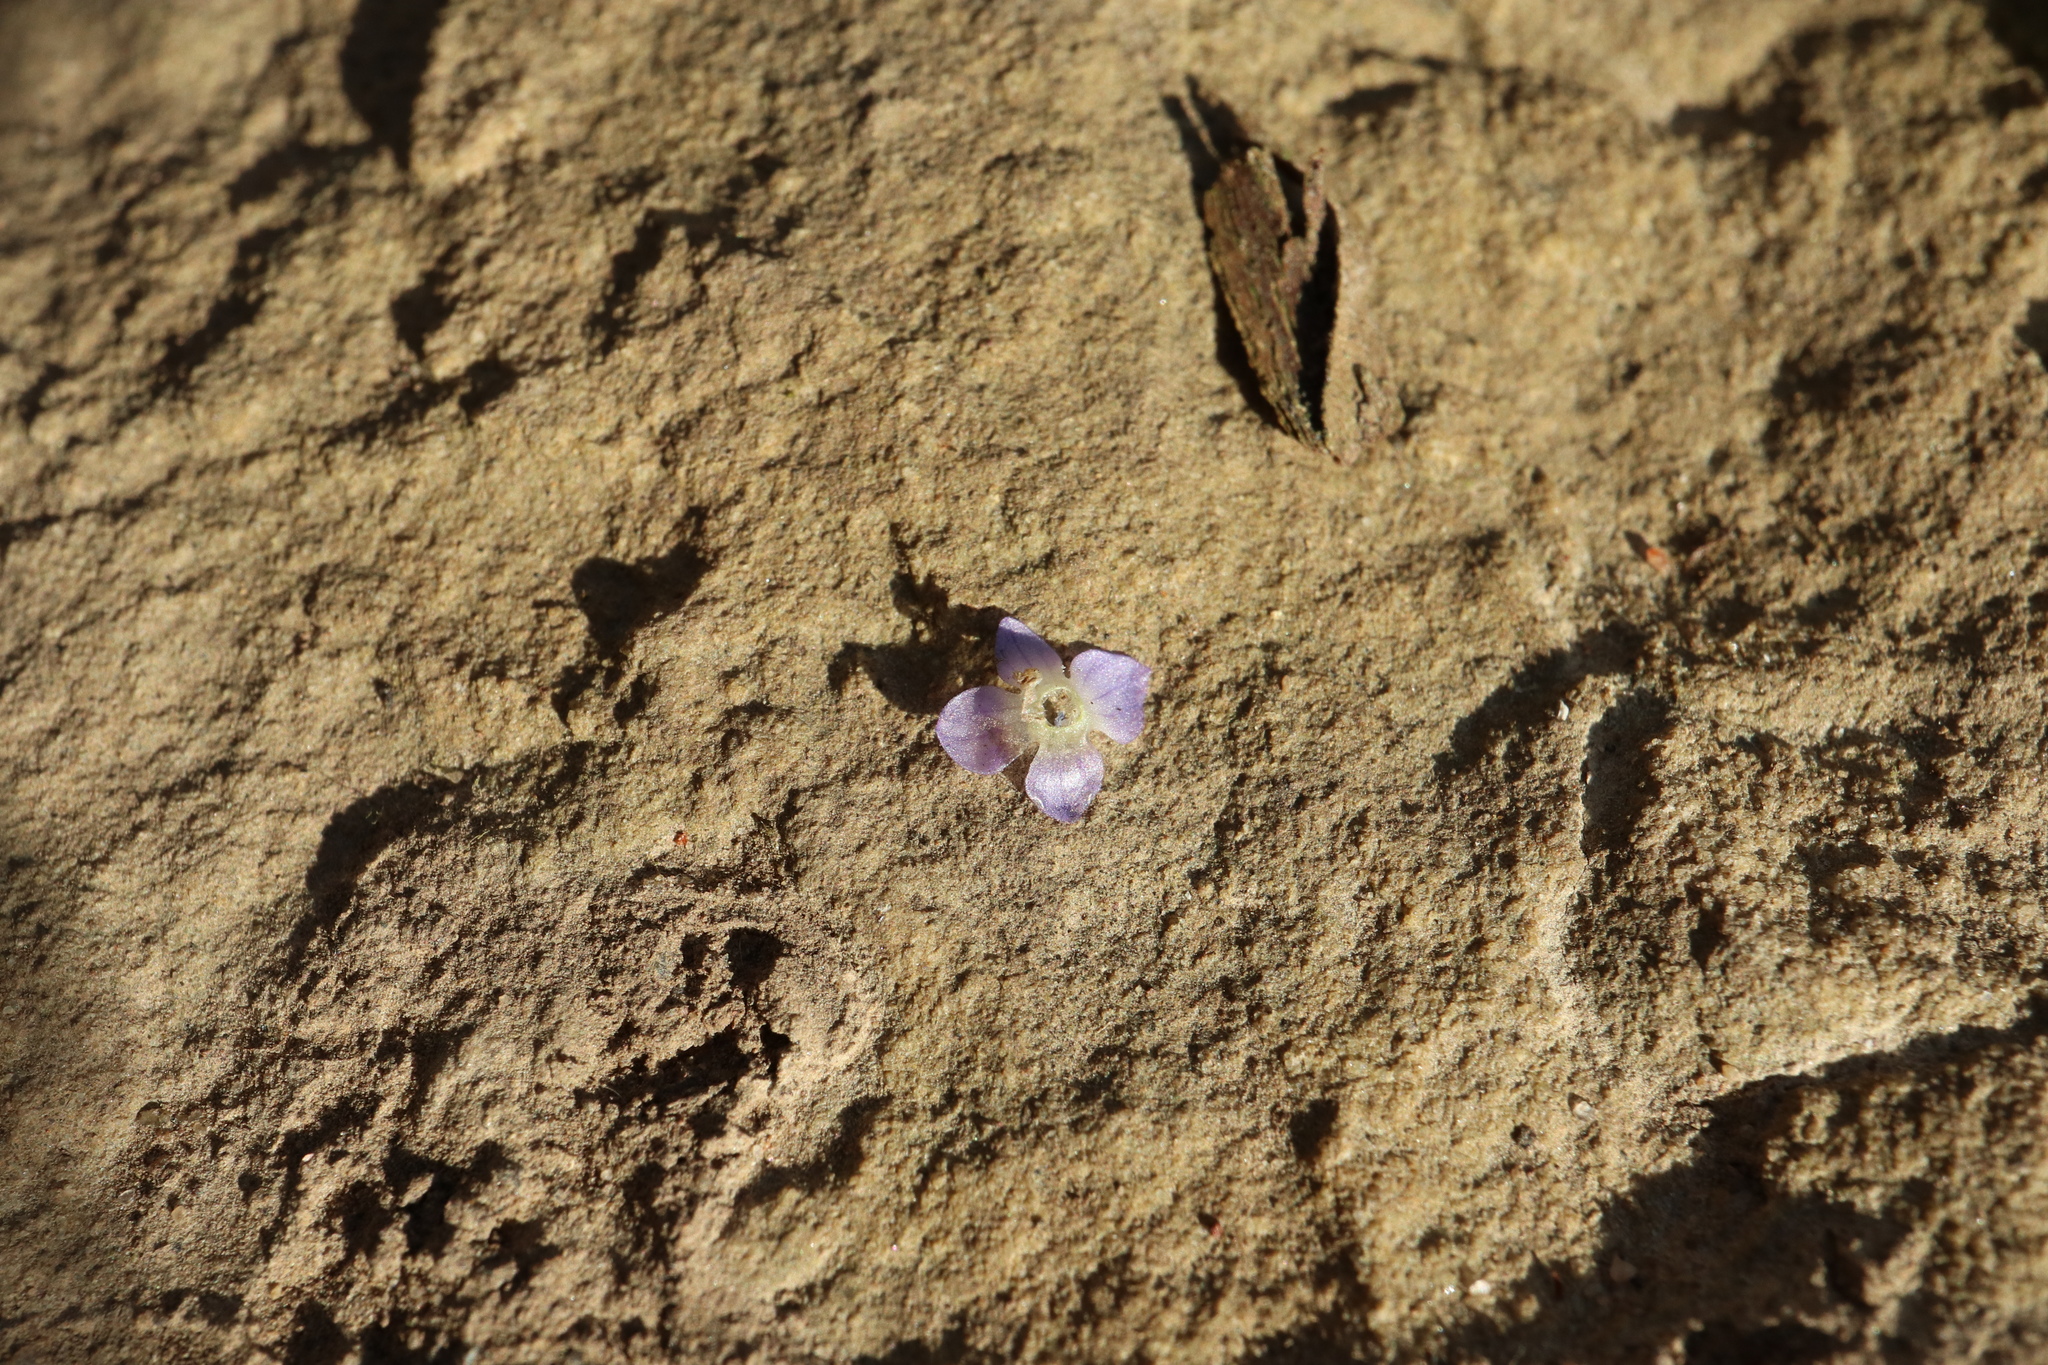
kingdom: Plantae
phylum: Tracheophyta
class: Magnoliopsida
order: Lamiales
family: Plantaginaceae
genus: Veronica
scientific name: Veronica hederifolia
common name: Ivy-leaved speedwell
